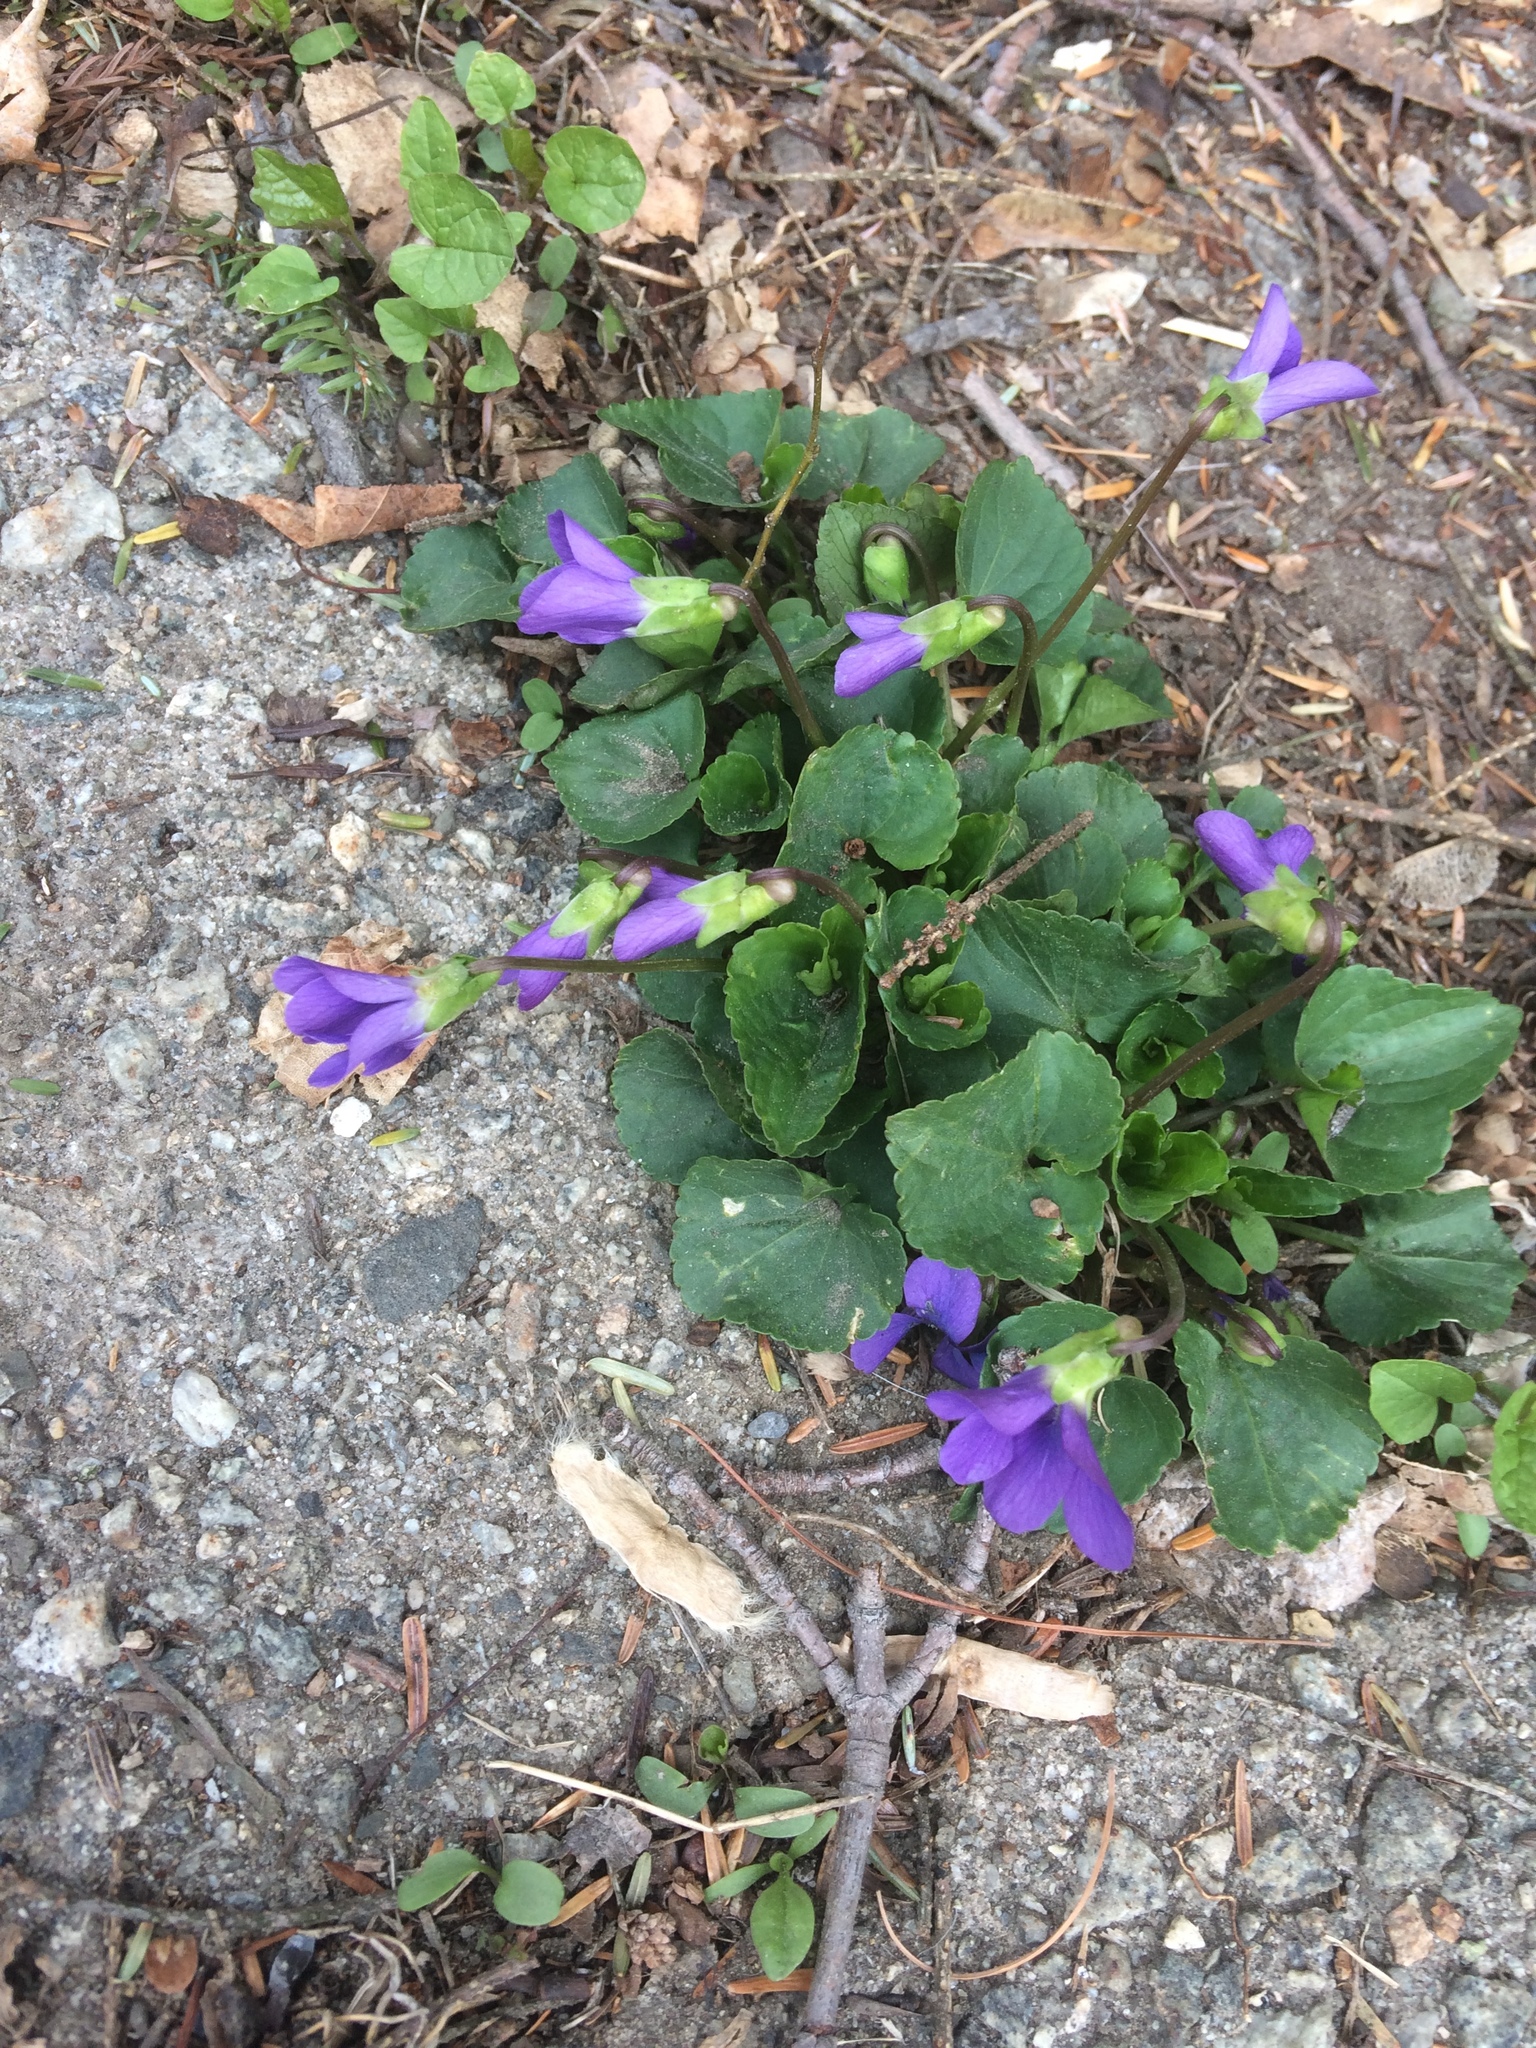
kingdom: Plantae
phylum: Tracheophyta
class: Magnoliopsida
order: Malpighiales
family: Violaceae
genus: Viola
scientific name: Viola sororia
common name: Dooryard violet
